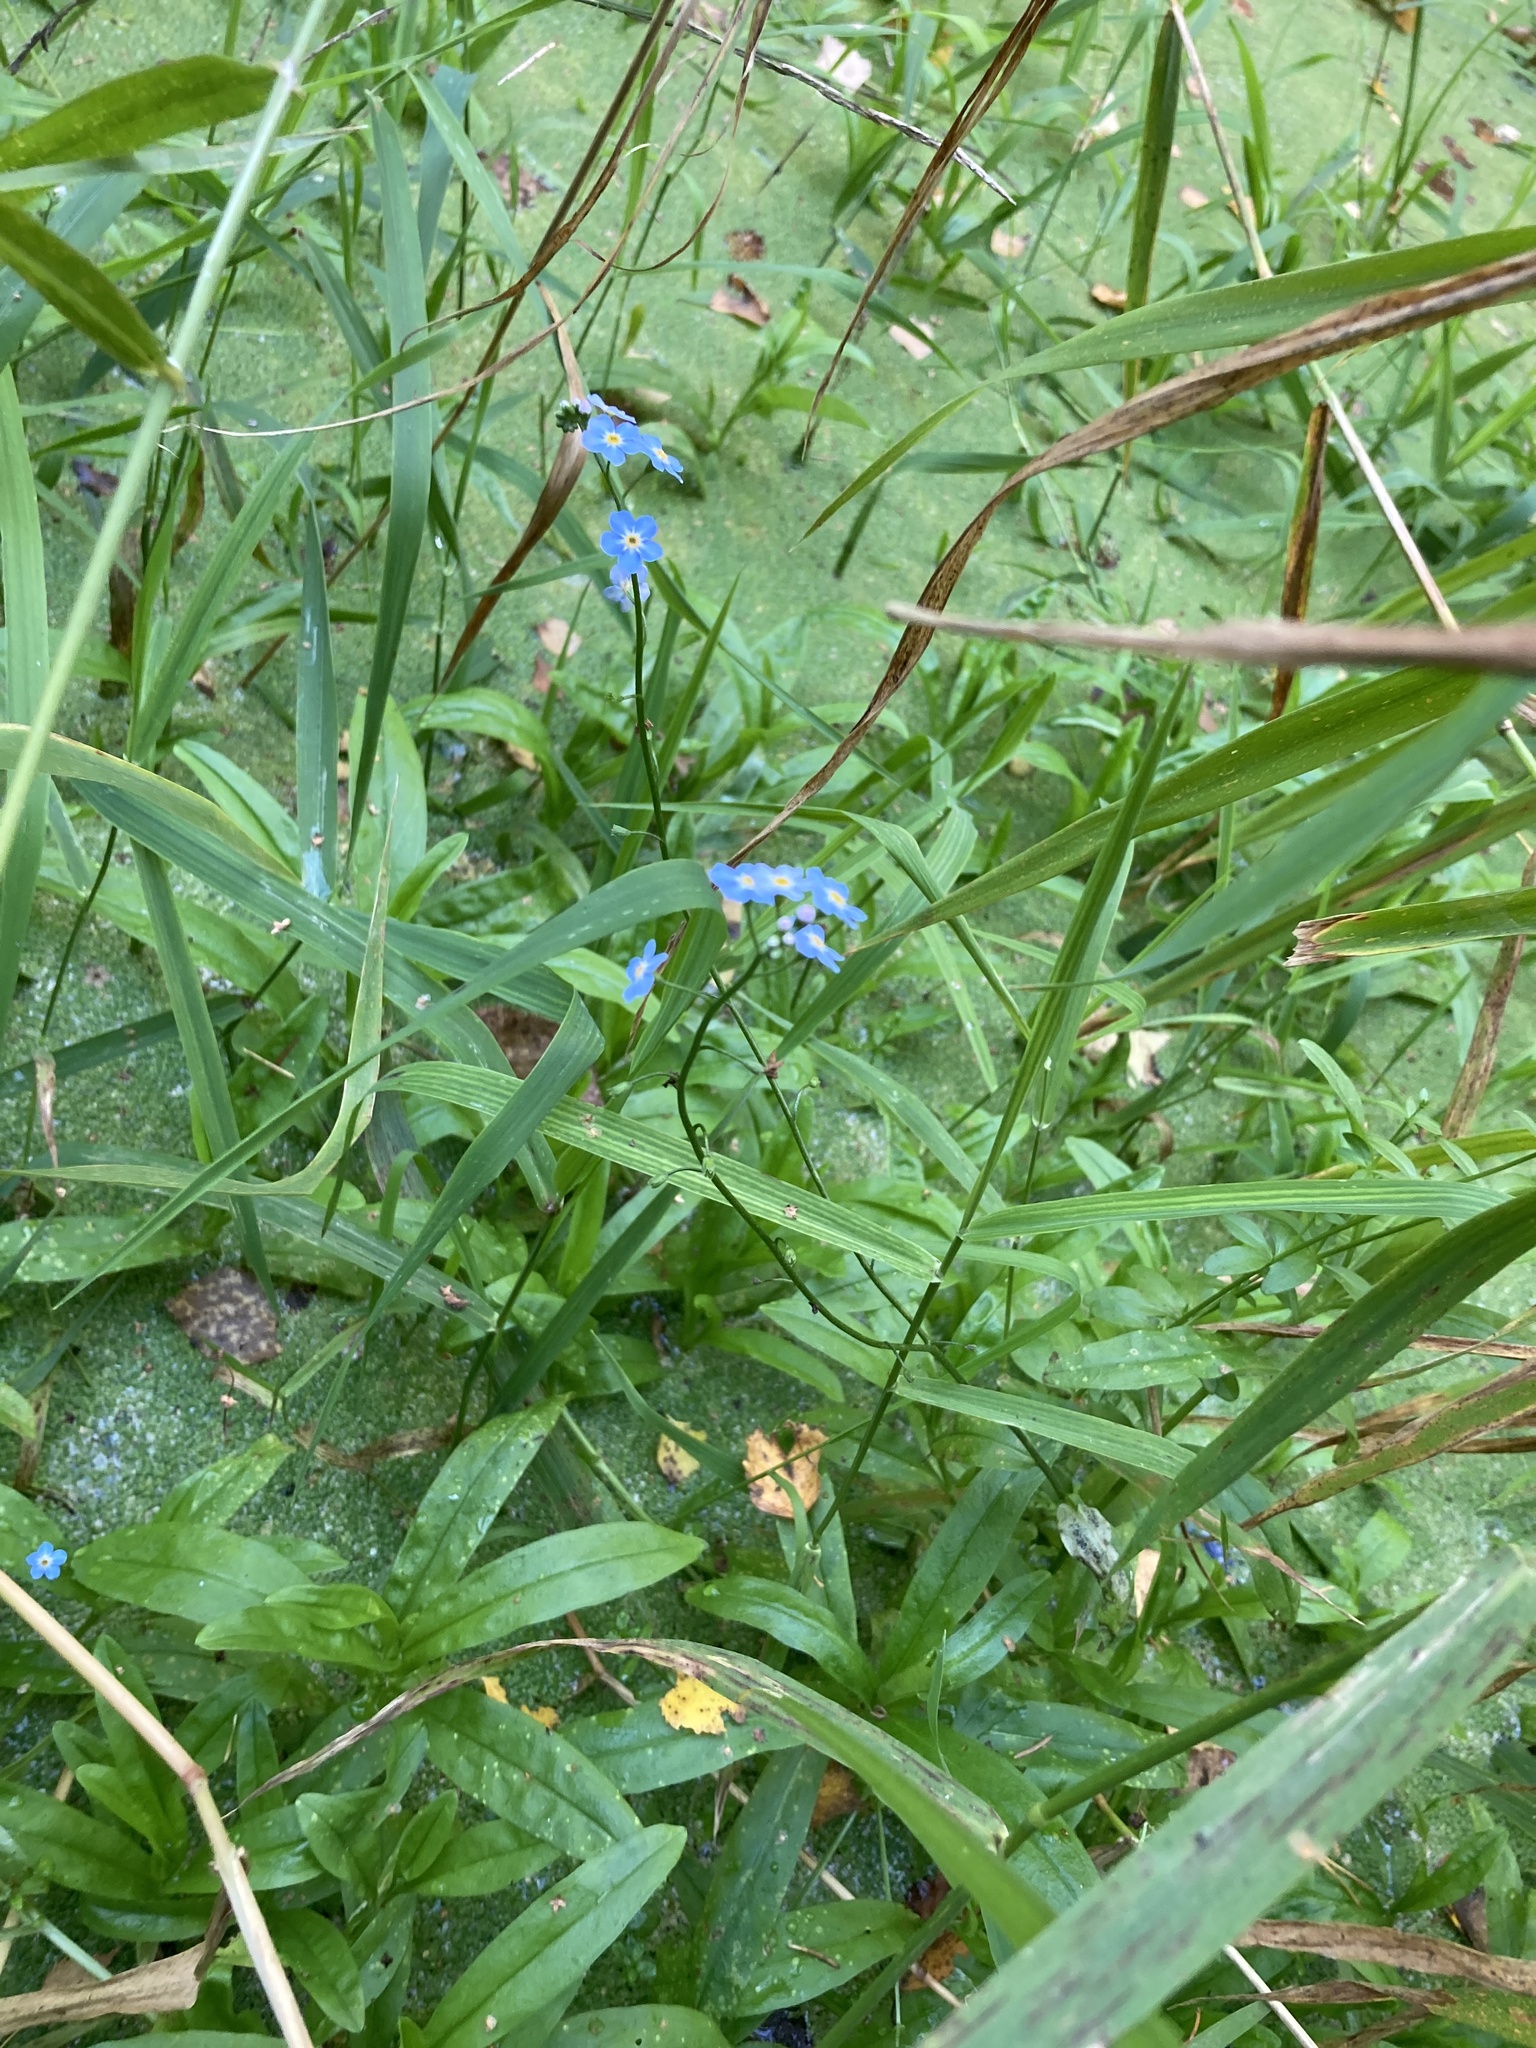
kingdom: Plantae
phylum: Tracheophyta
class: Magnoliopsida
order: Boraginales
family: Boraginaceae
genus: Myosotis
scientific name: Myosotis scorpioides
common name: Water forget-me-not
